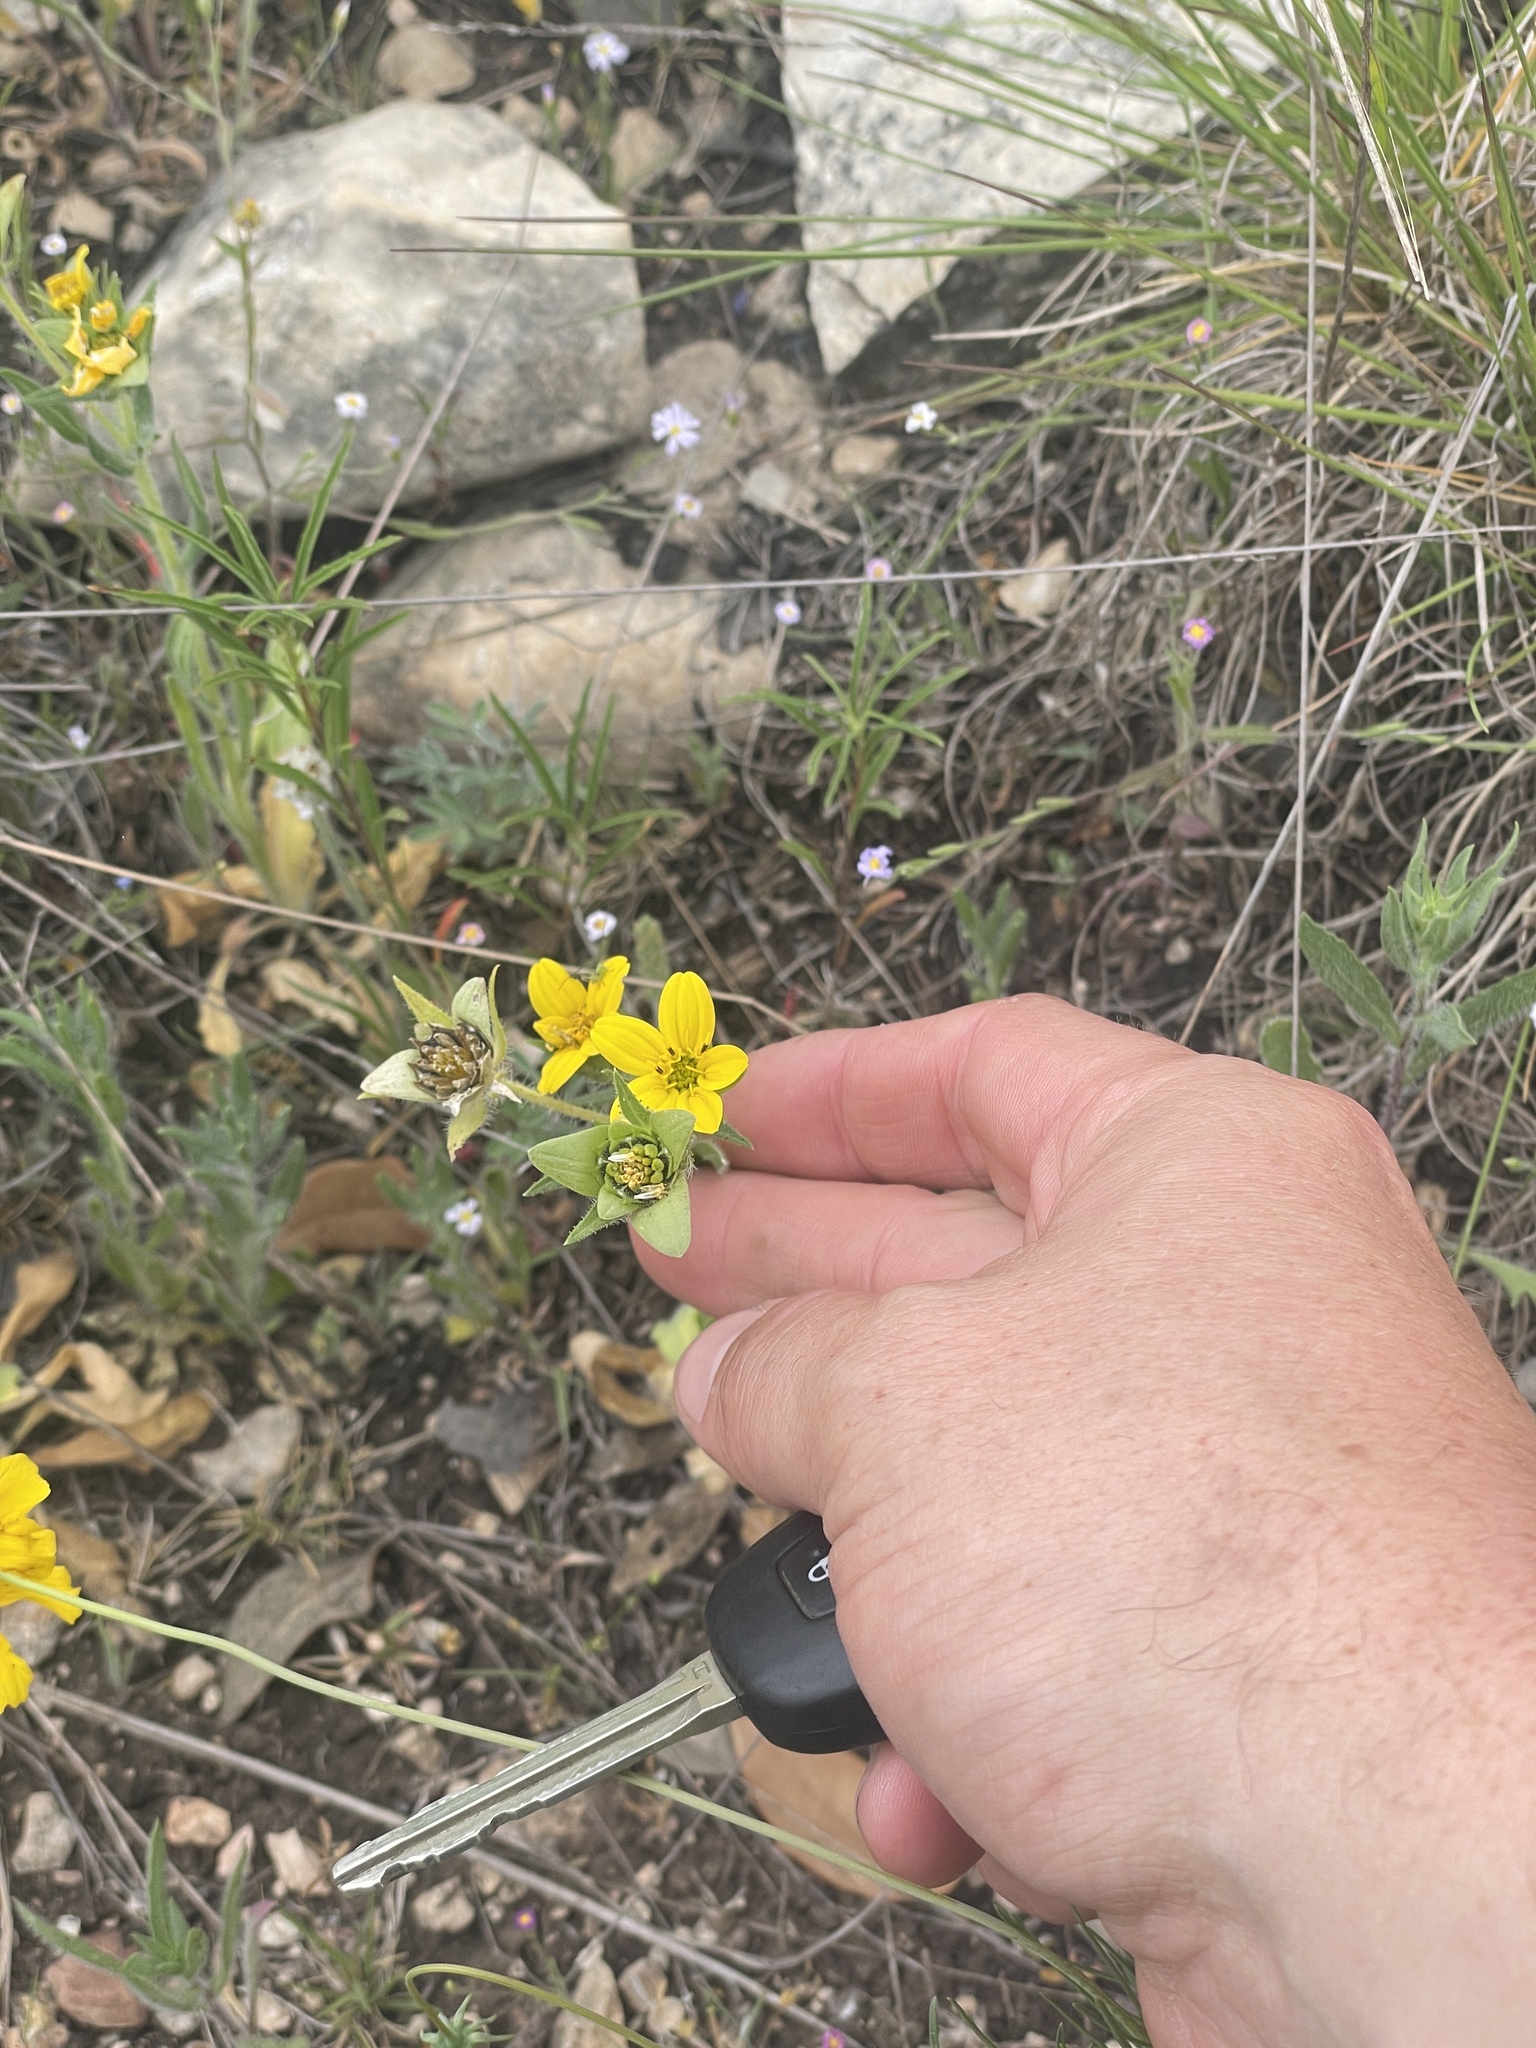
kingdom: Plantae
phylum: Tracheophyta
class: Magnoliopsida
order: Asterales
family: Asteraceae
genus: Lindheimera
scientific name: Lindheimera texana
